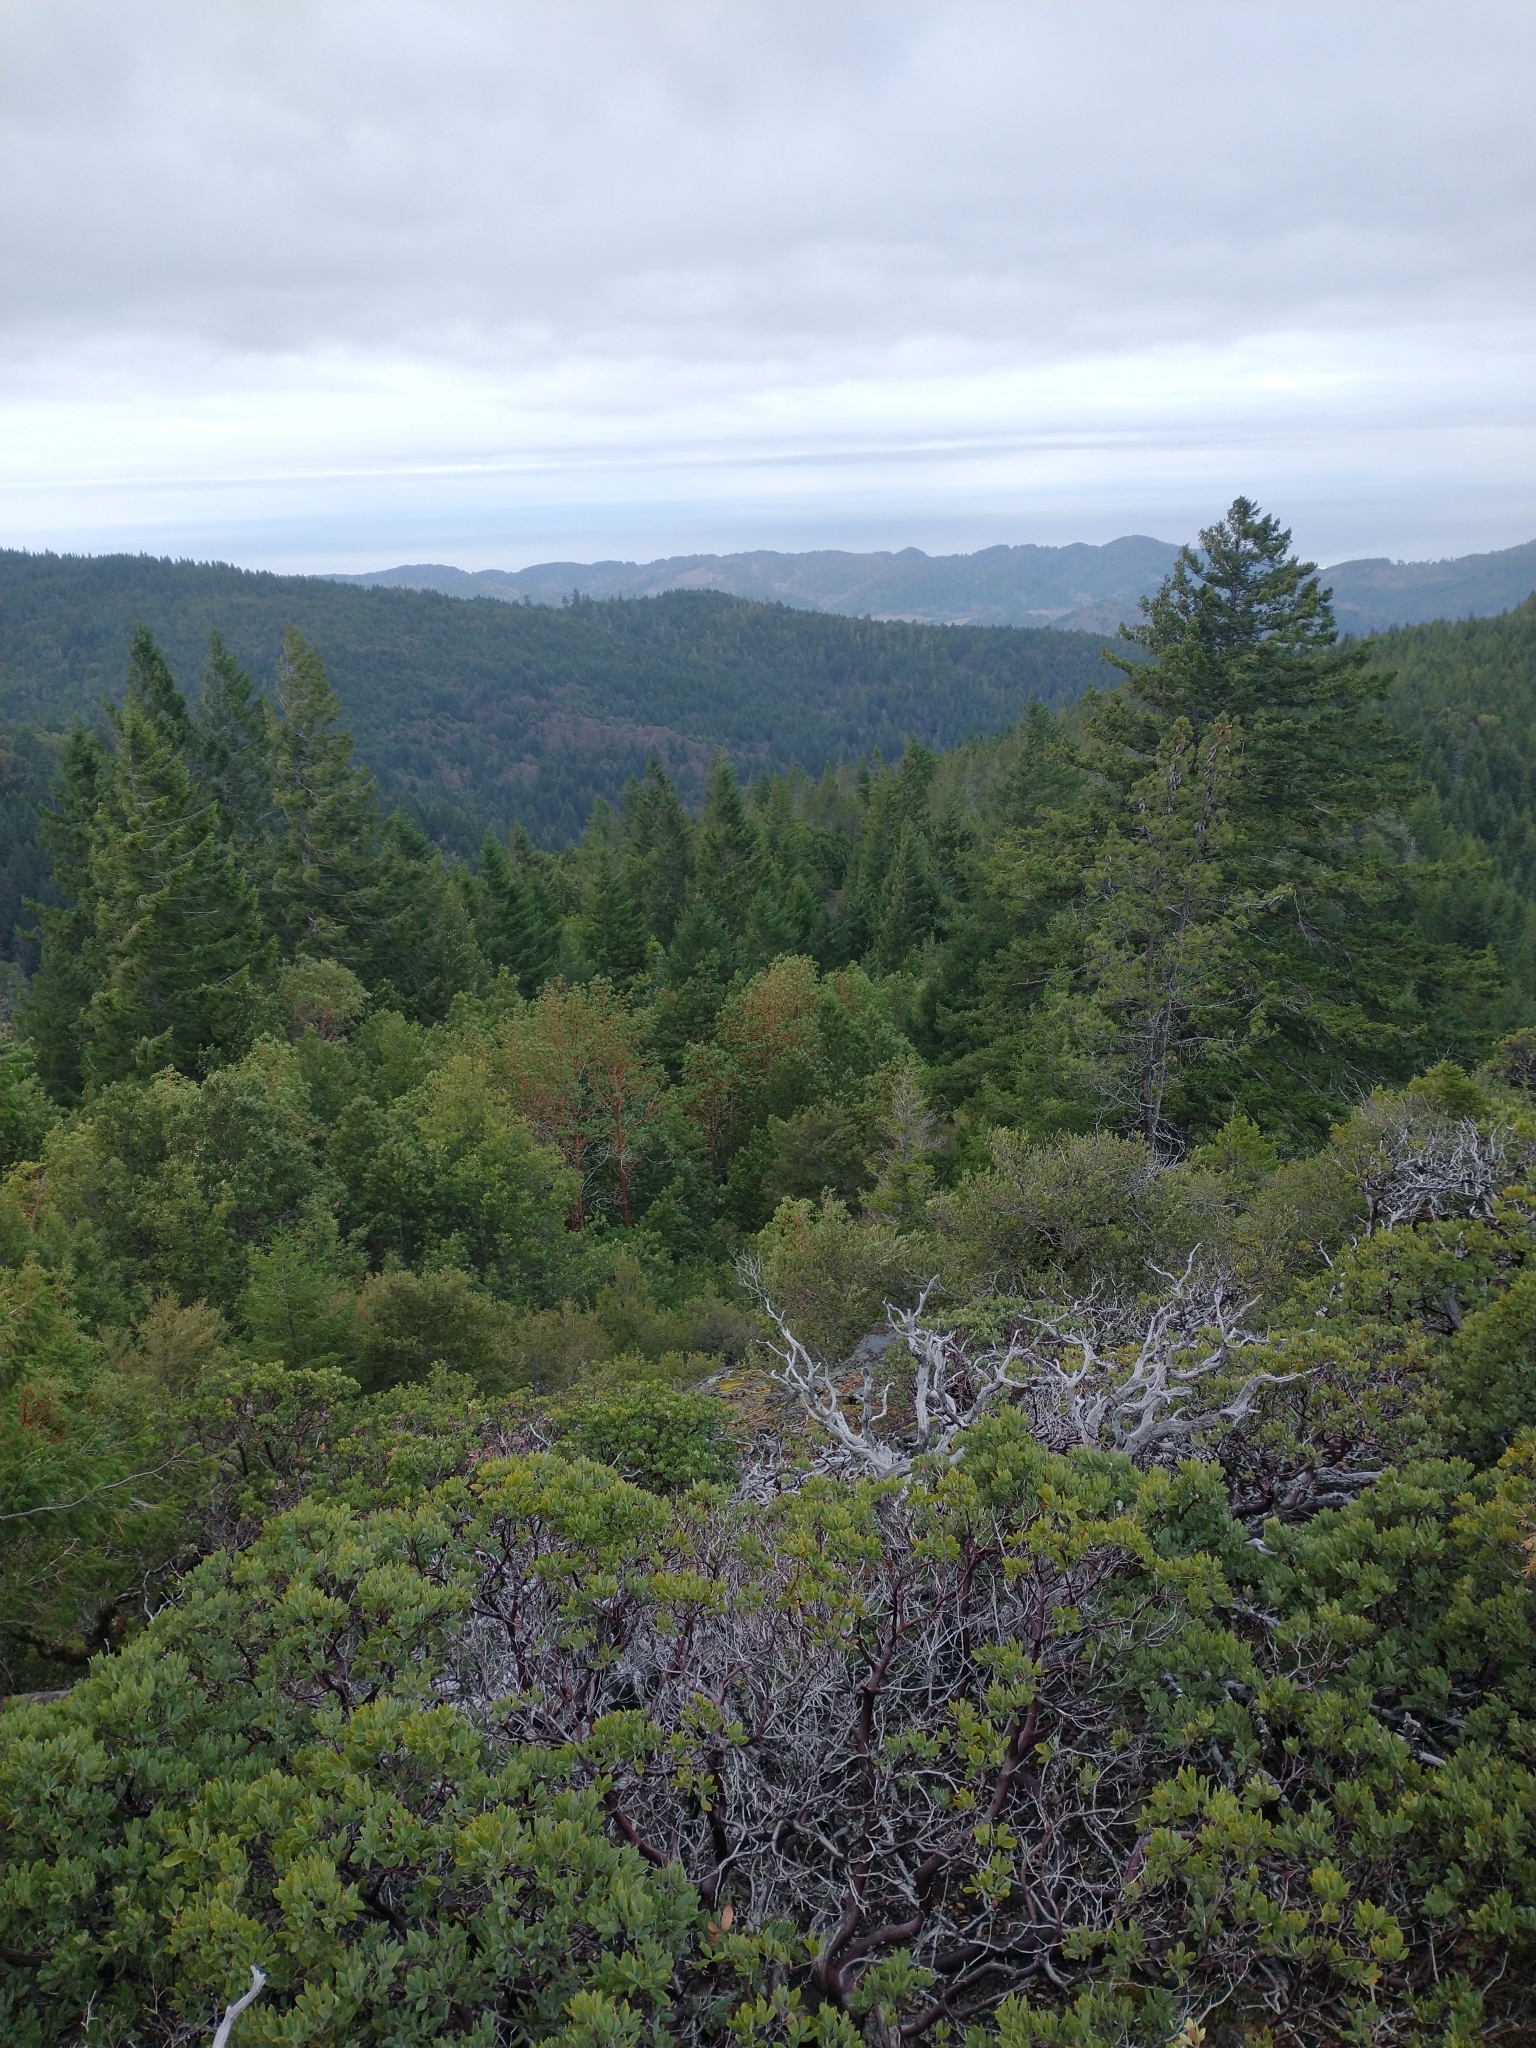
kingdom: Plantae
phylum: Tracheophyta
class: Pinopsida
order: Pinales
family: Pinaceae
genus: Pseudotsuga
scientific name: Pseudotsuga menziesii
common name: Douglas fir
